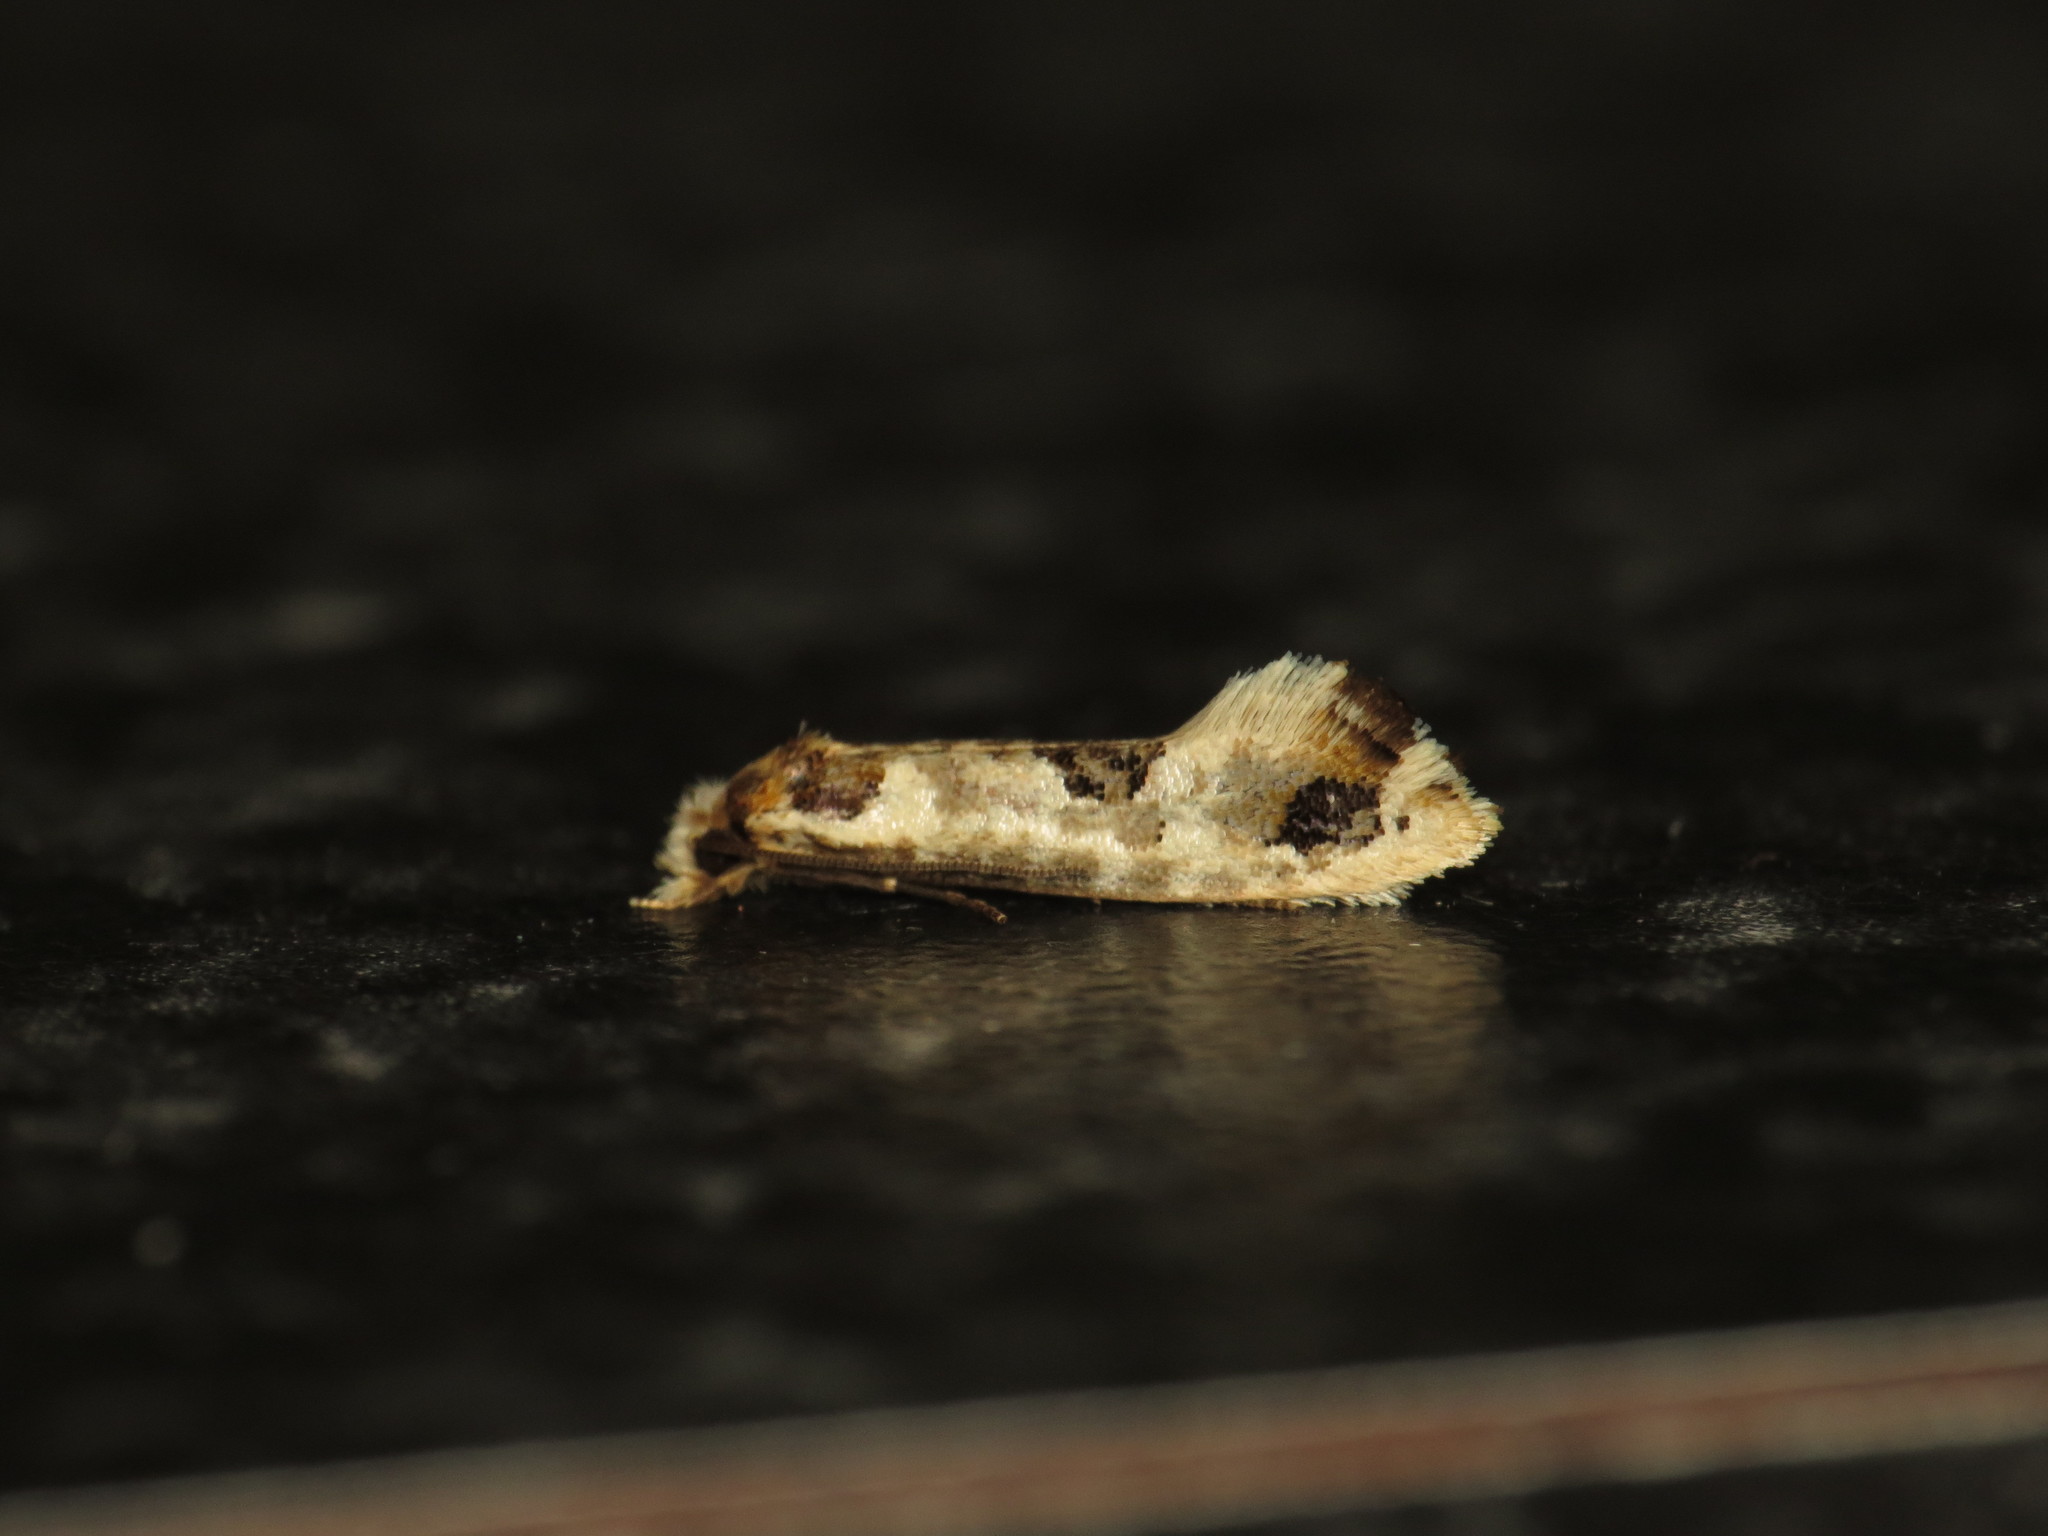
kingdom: Animalia
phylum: Arthropoda
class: Insecta
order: Lepidoptera
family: Tineidae
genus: Moerarchis
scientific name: Moerarchis inconcisella
